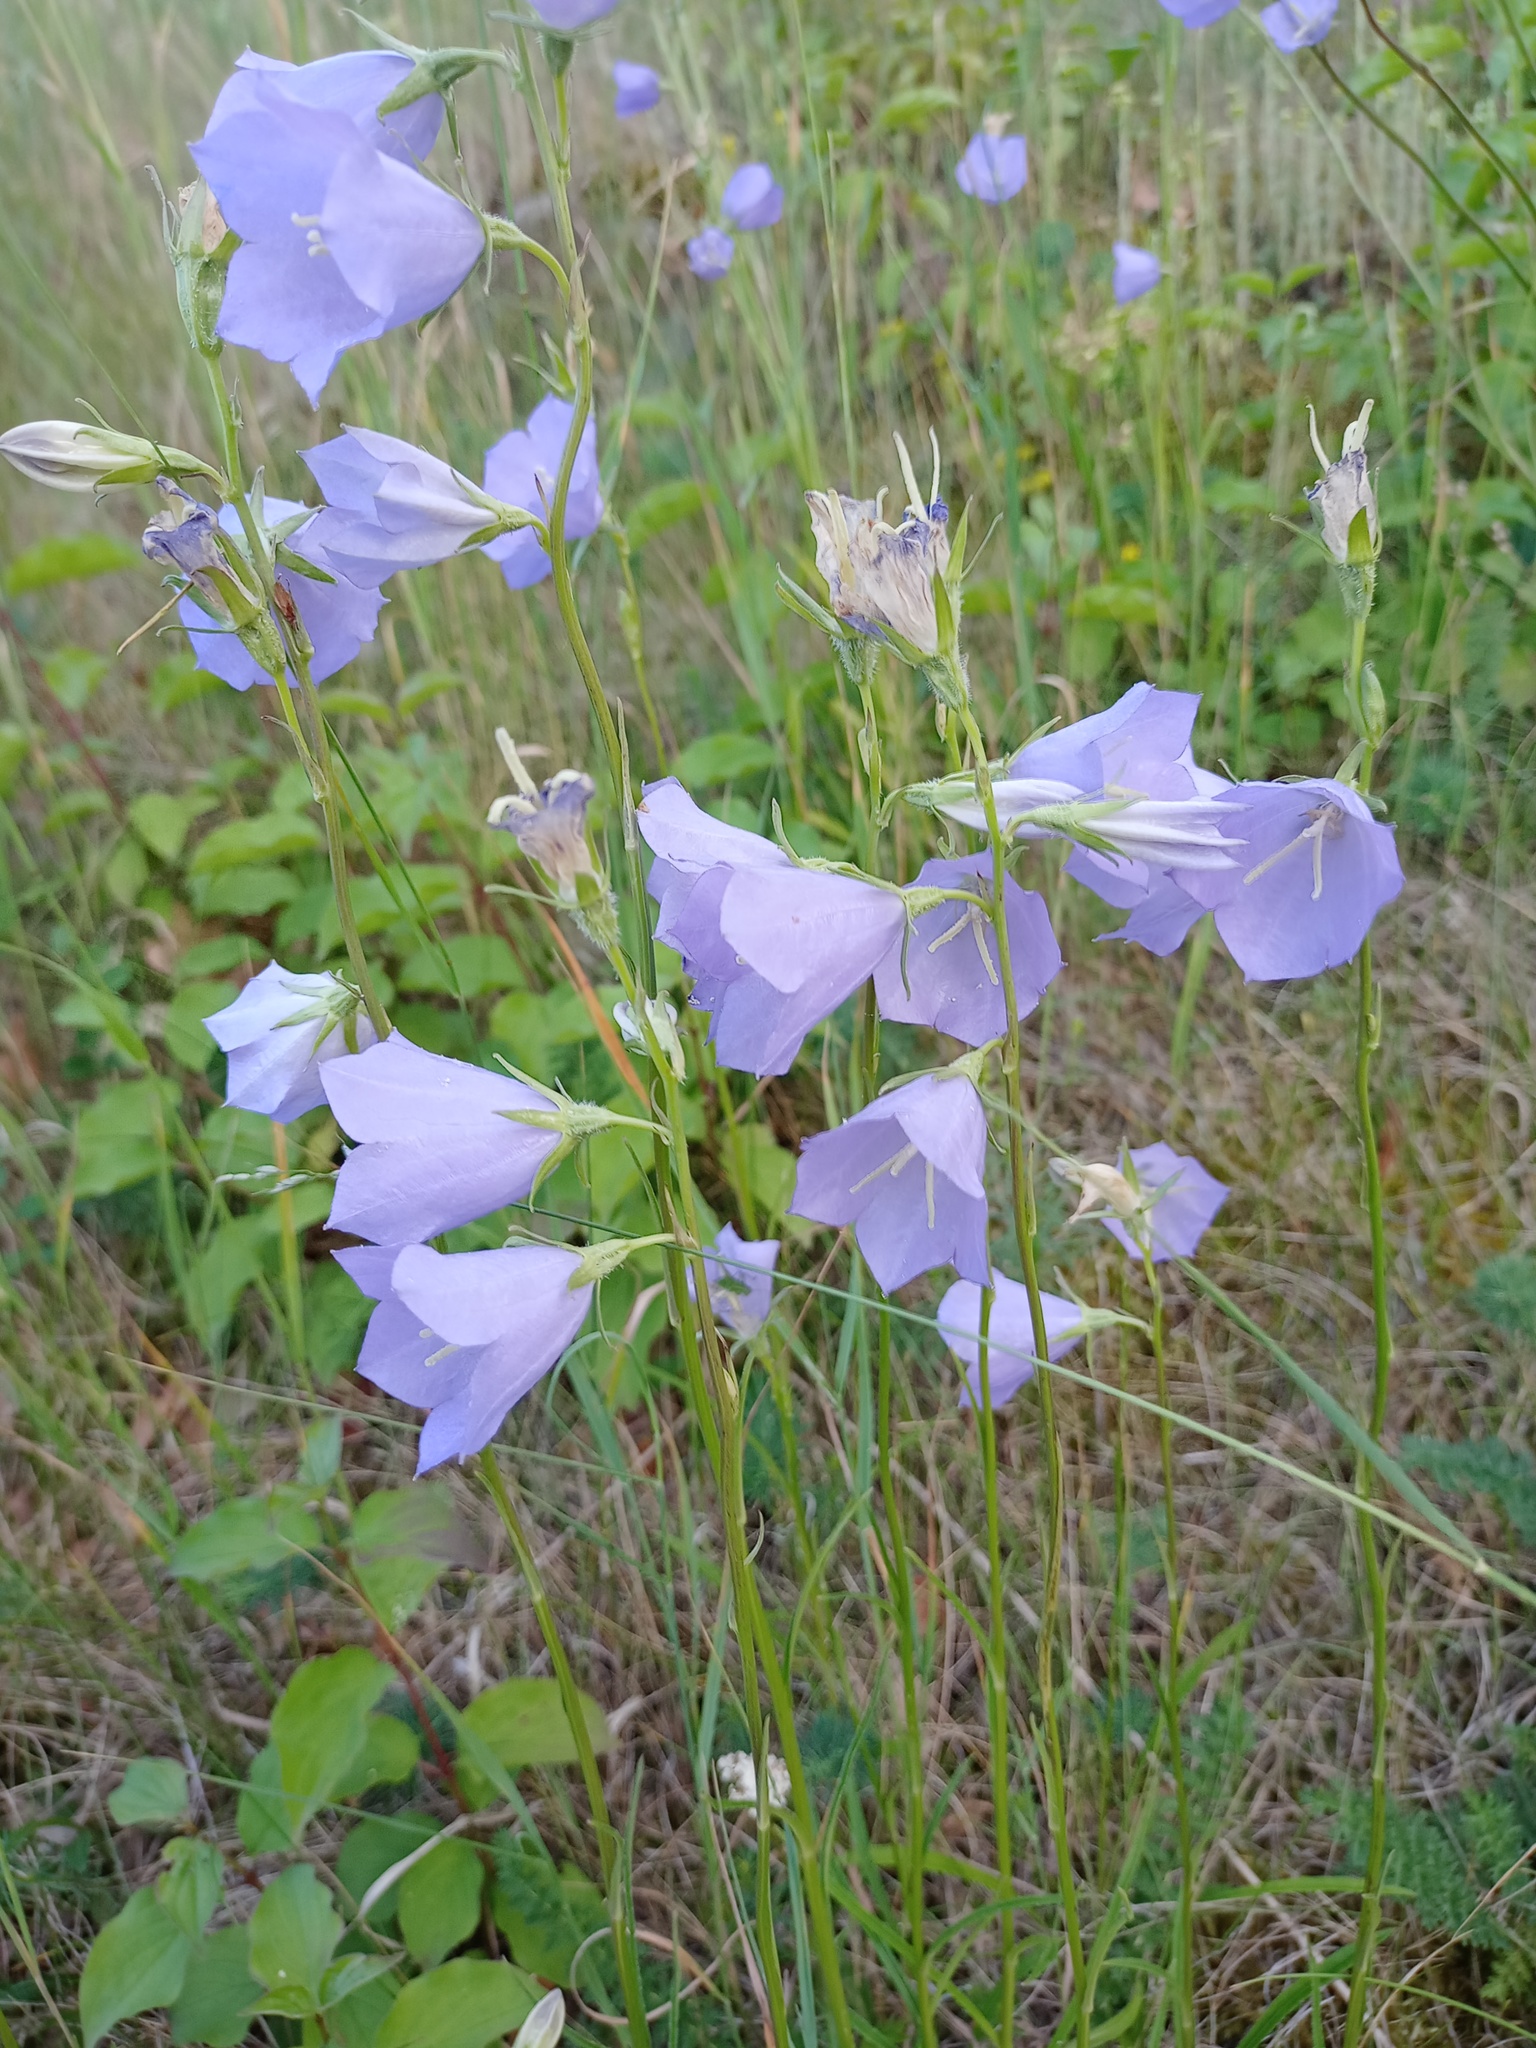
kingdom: Plantae
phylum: Tracheophyta
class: Magnoliopsida
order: Asterales
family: Campanulaceae
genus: Campanula
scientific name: Campanula persicifolia
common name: Peach-leaved bellflower
